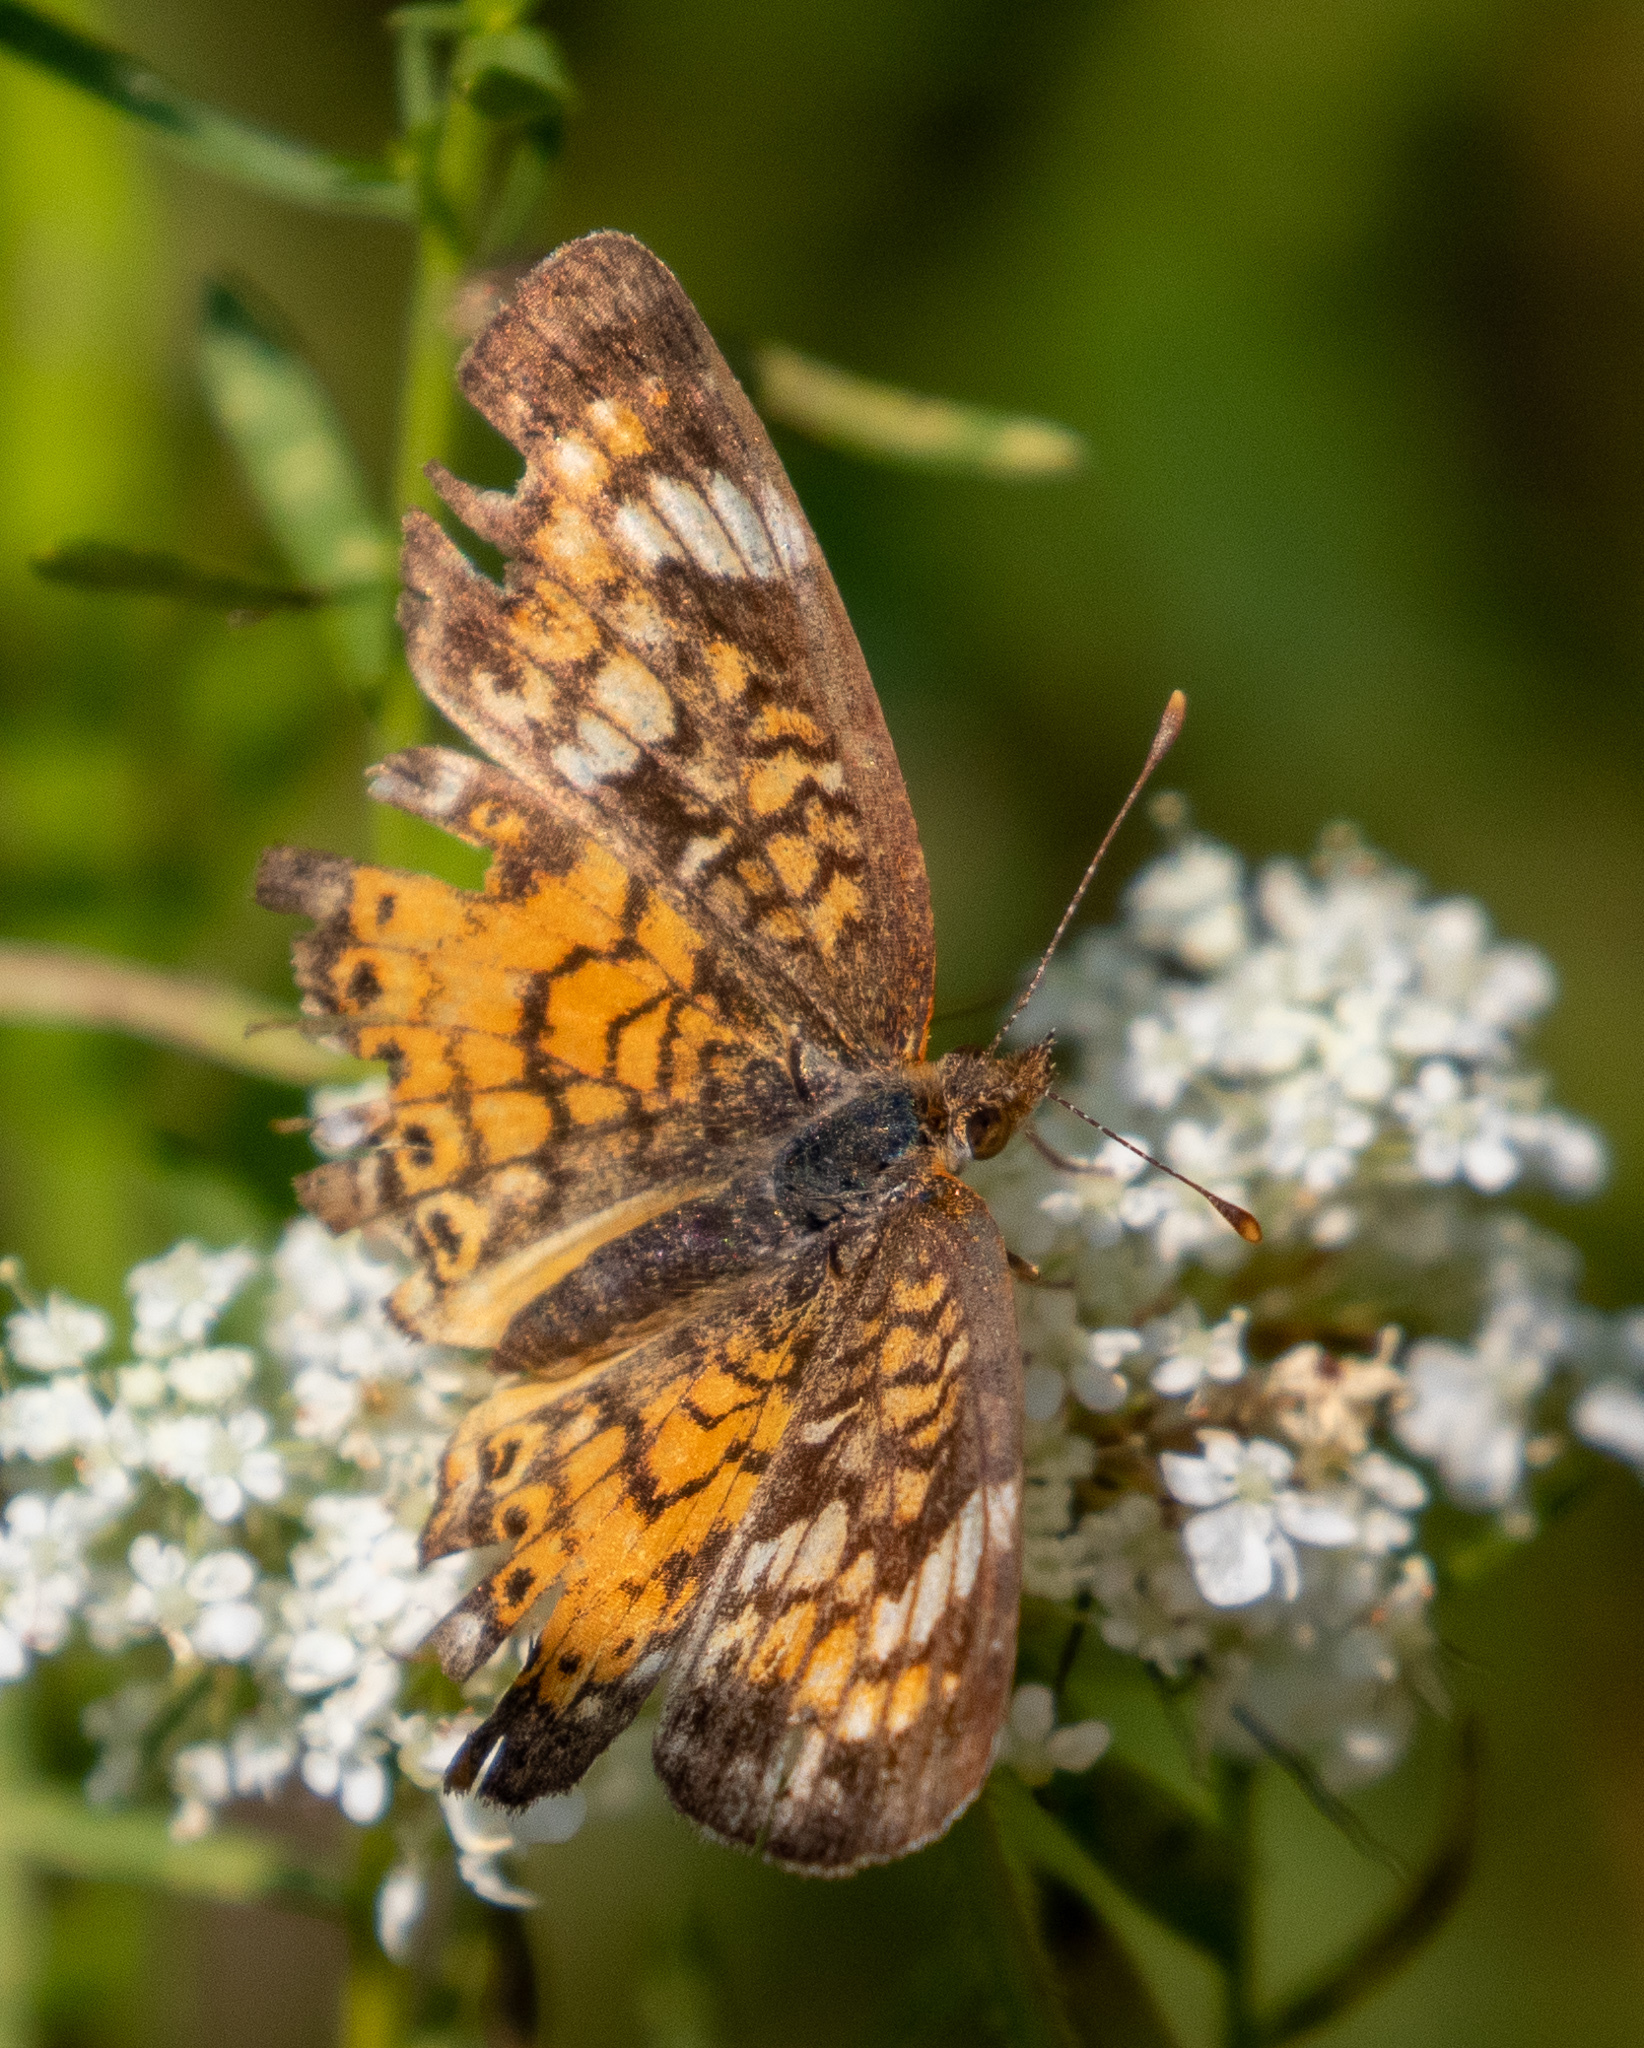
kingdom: Animalia
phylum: Arthropoda
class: Insecta
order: Lepidoptera
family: Nymphalidae
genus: Phyciodes
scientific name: Phyciodes tharos
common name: Pearl crescent
